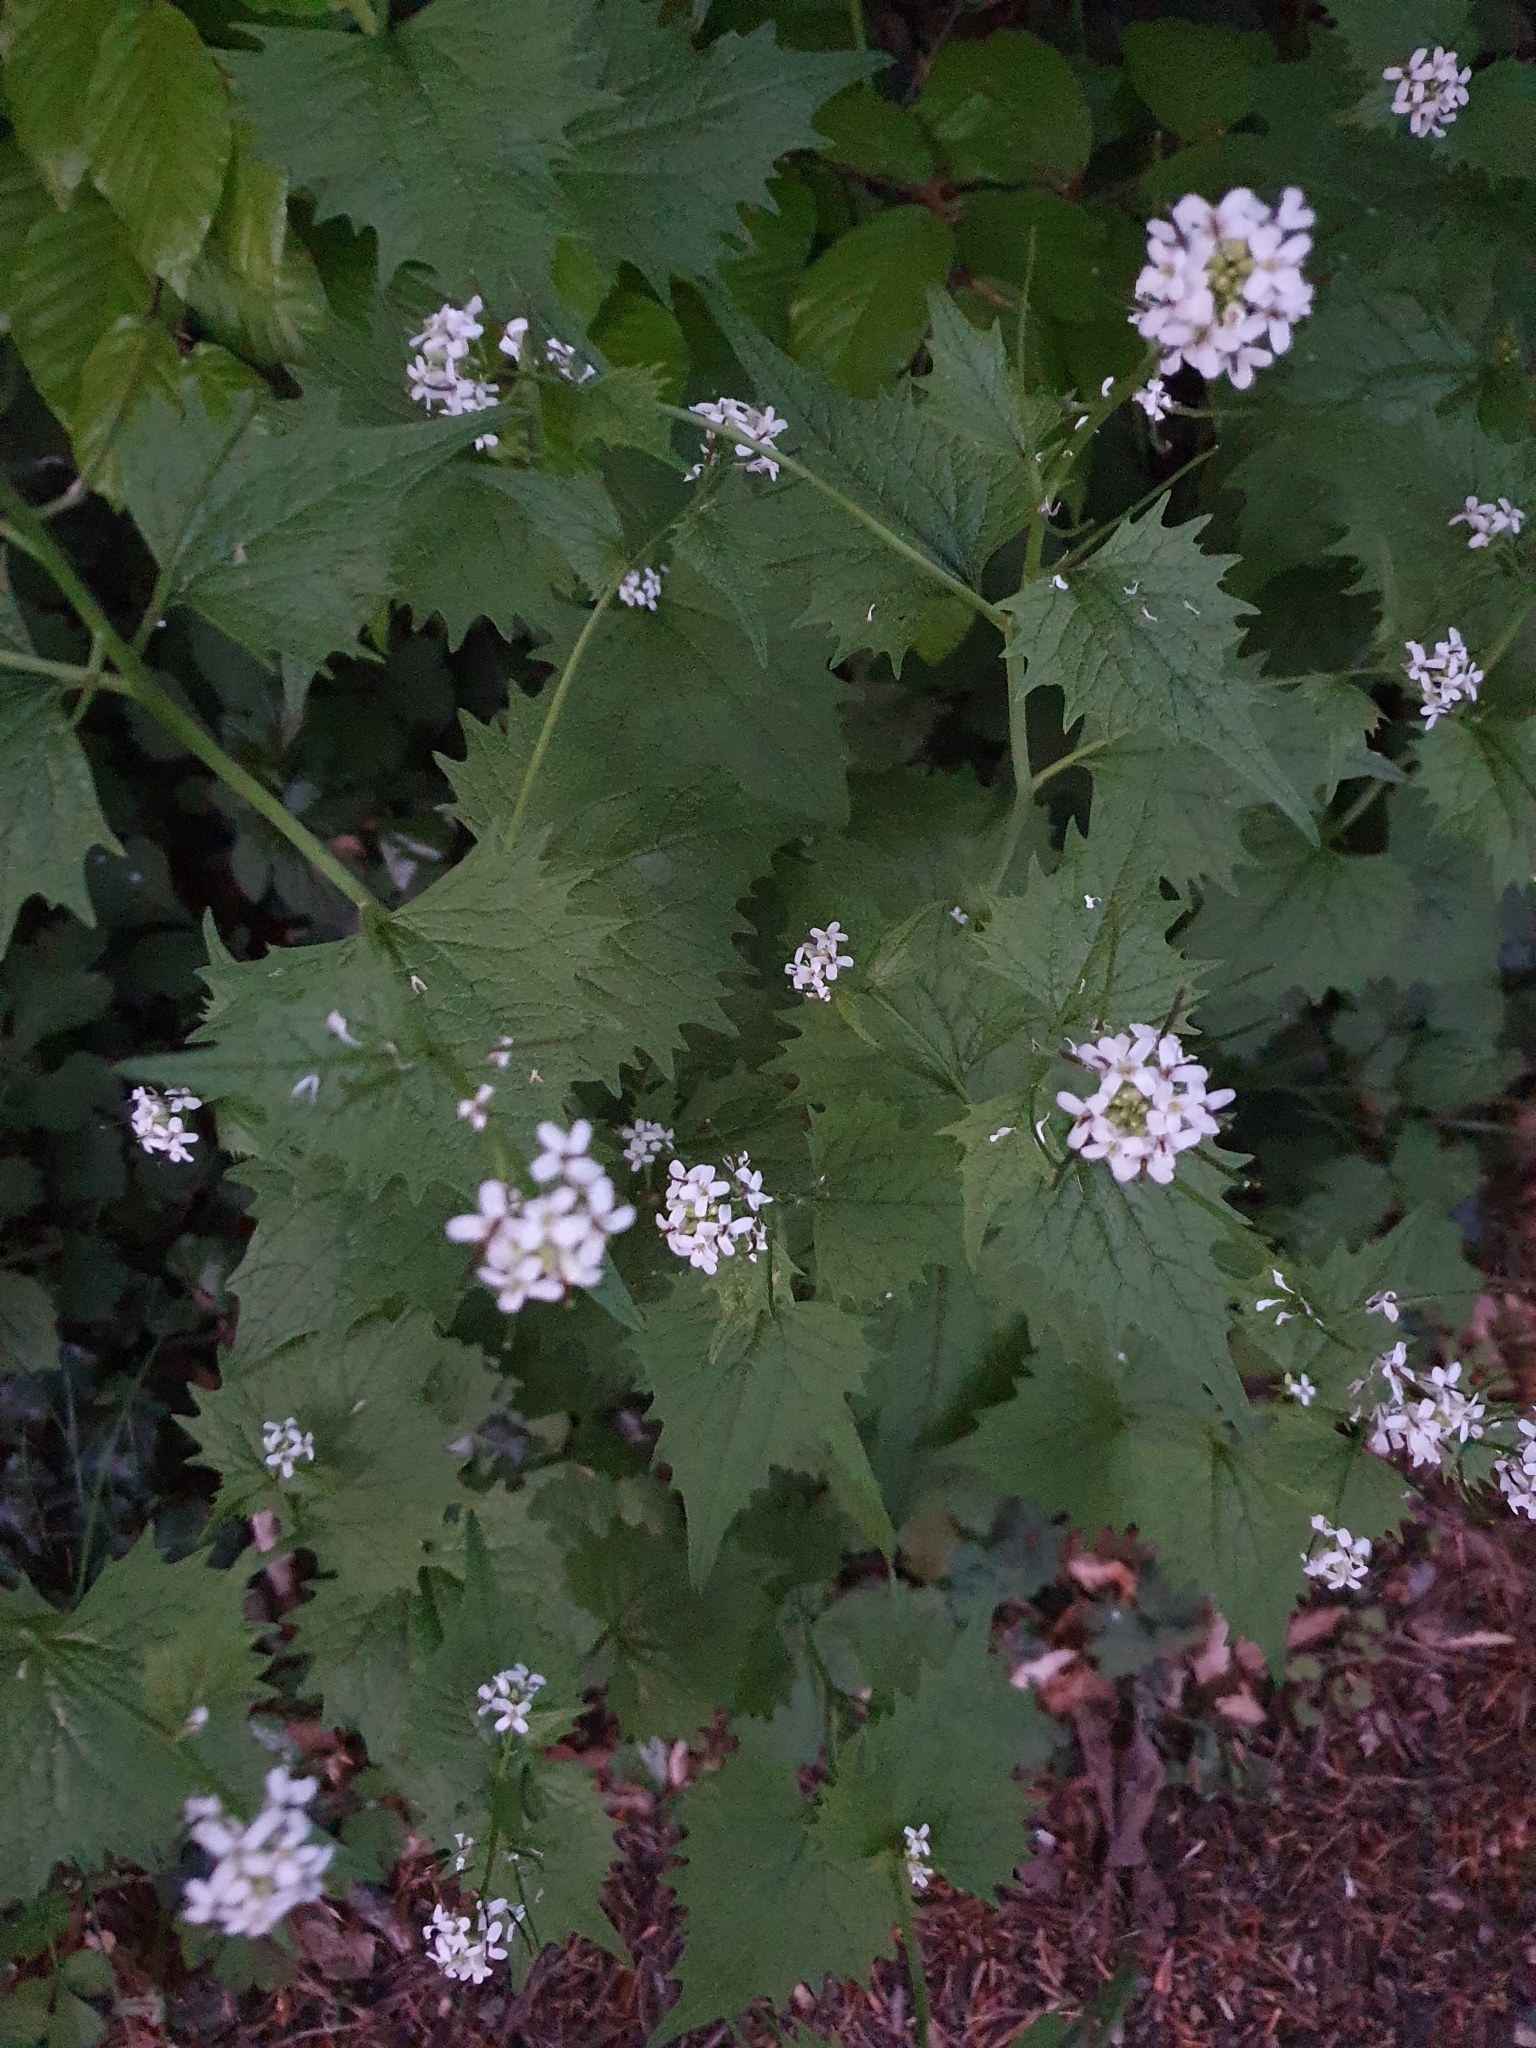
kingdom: Plantae
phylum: Tracheophyta
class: Magnoliopsida
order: Brassicales
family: Brassicaceae
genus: Alliaria
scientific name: Alliaria petiolata
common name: Garlic mustard
